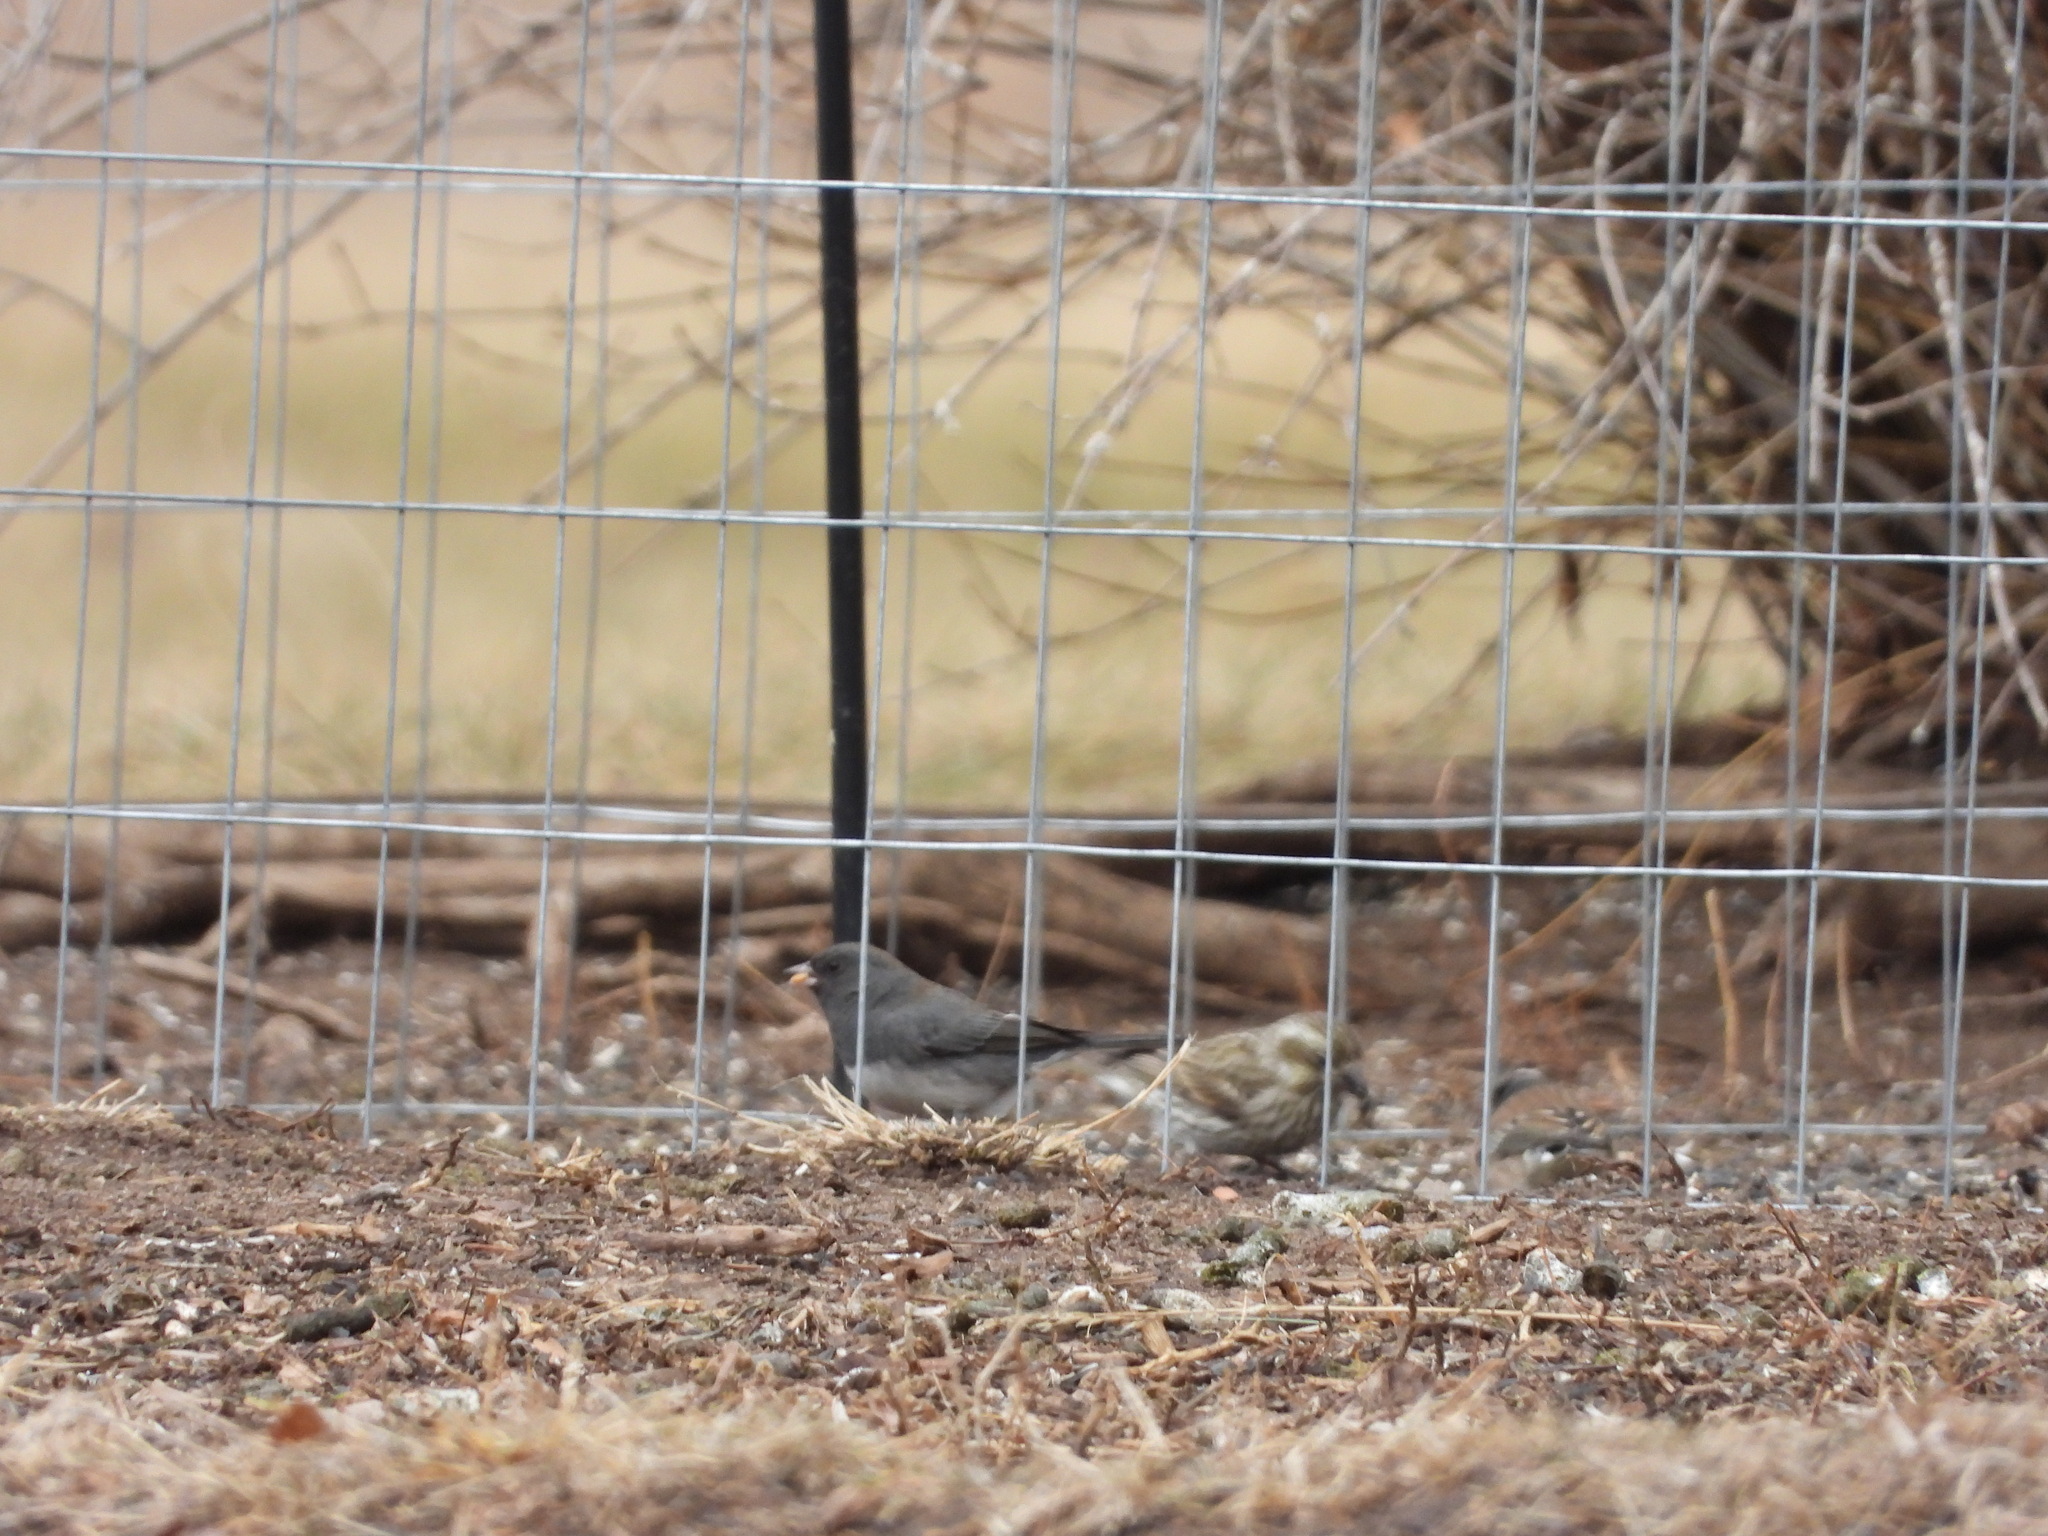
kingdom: Animalia
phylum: Chordata
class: Aves
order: Passeriformes
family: Passerellidae
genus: Junco
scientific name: Junco hyemalis
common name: Dark-eyed junco
